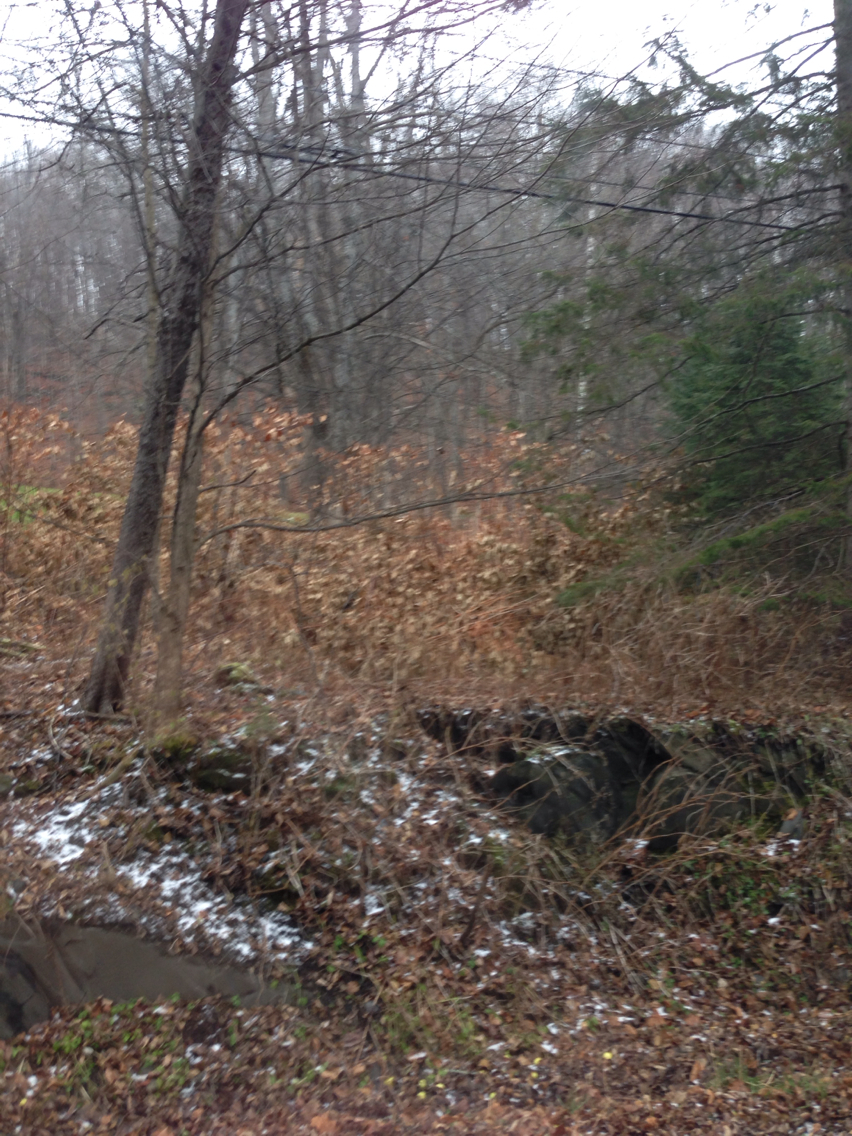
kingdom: Plantae
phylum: Tracheophyta
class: Magnoliopsida
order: Caryophyllales
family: Polygonaceae
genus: Reynoutria
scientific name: Reynoutria japonica
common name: Japanese knotweed
